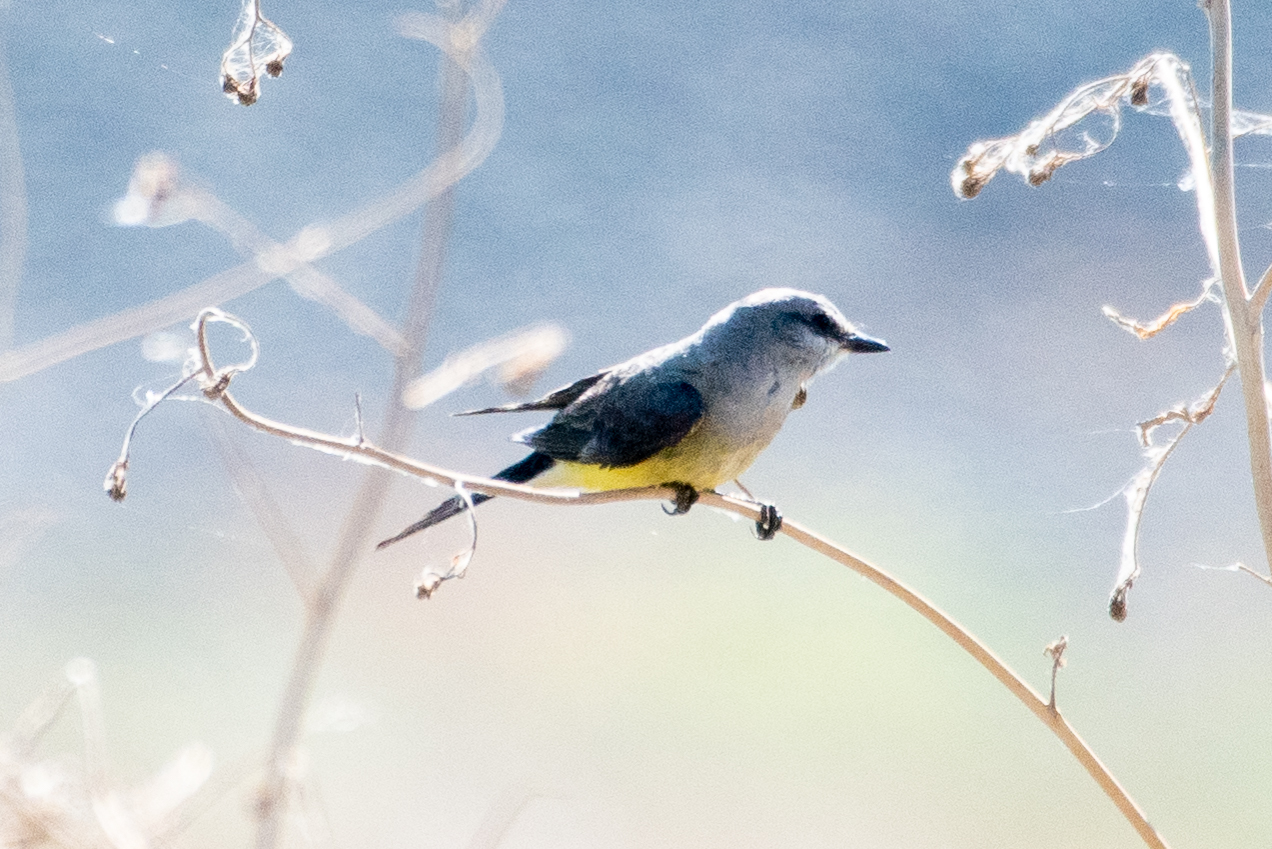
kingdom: Animalia
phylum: Chordata
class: Aves
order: Passeriformes
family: Tyrannidae
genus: Tyrannus
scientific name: Tyrannus verticalis
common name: Western kingbird
